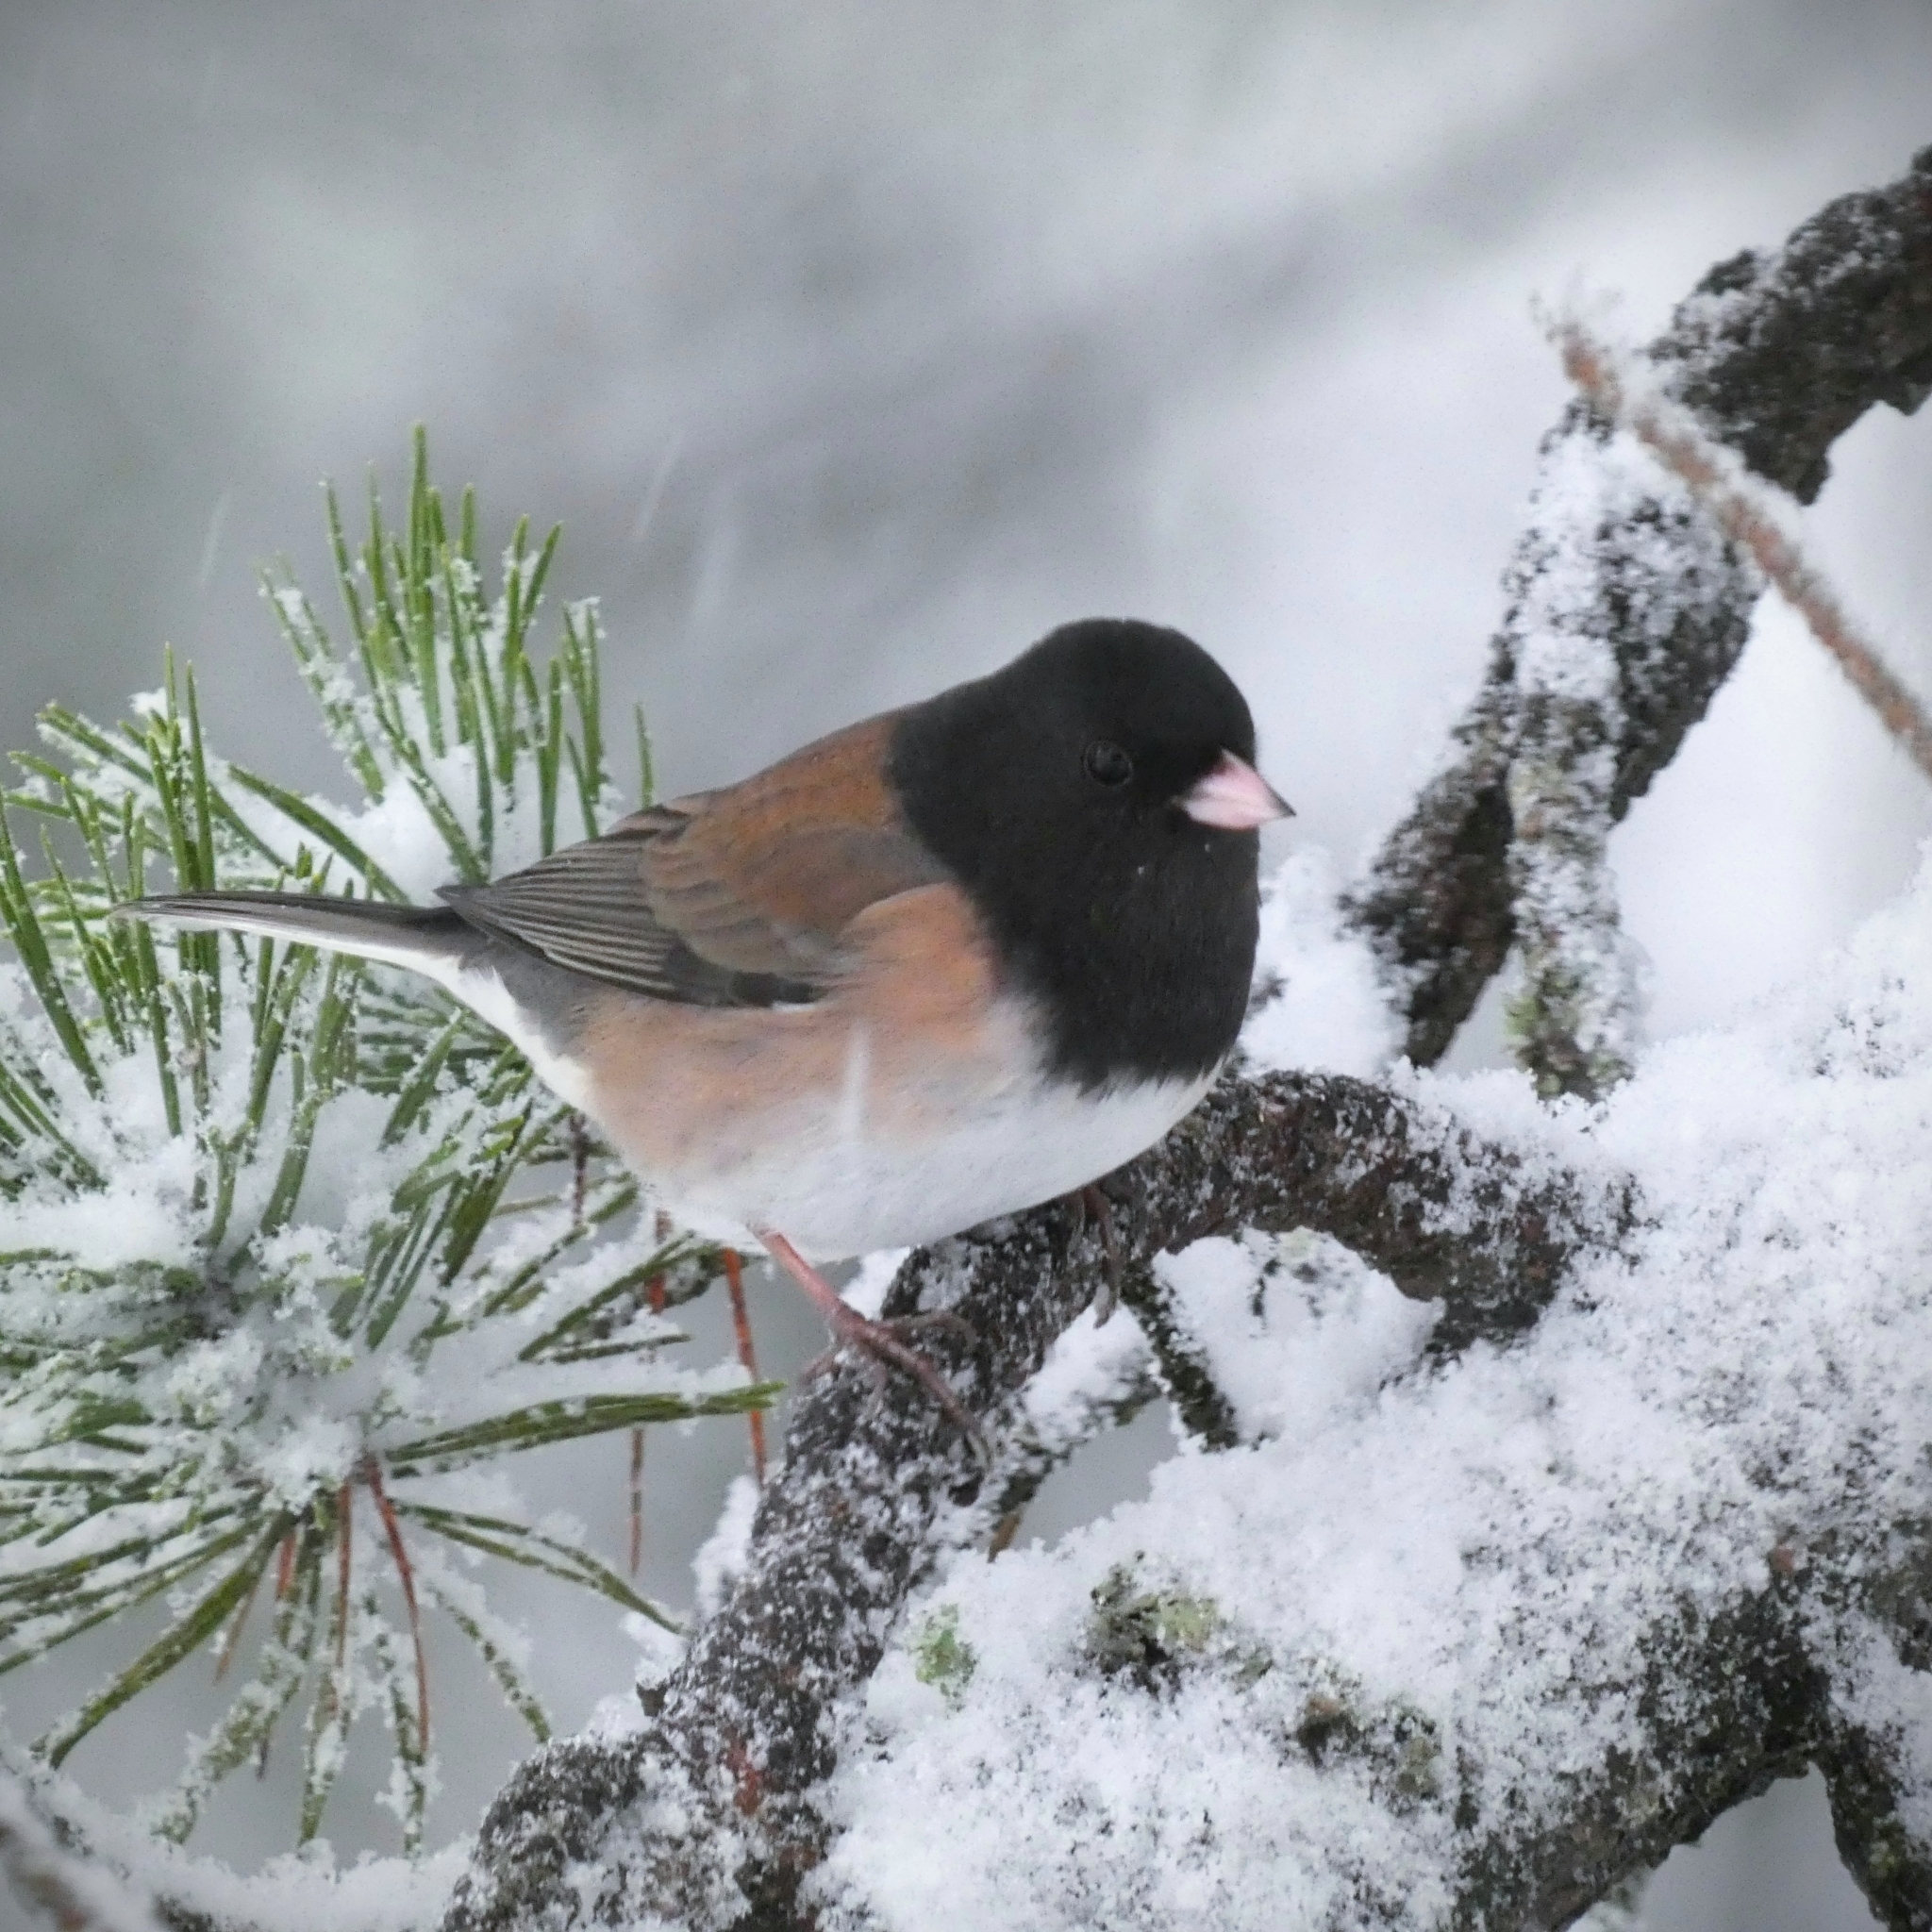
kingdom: Animalia
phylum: Chordata
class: Aves
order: Passeriformes
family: Passerellidae
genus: Junco
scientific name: Junco hyemalis
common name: Dark-eyed junco
